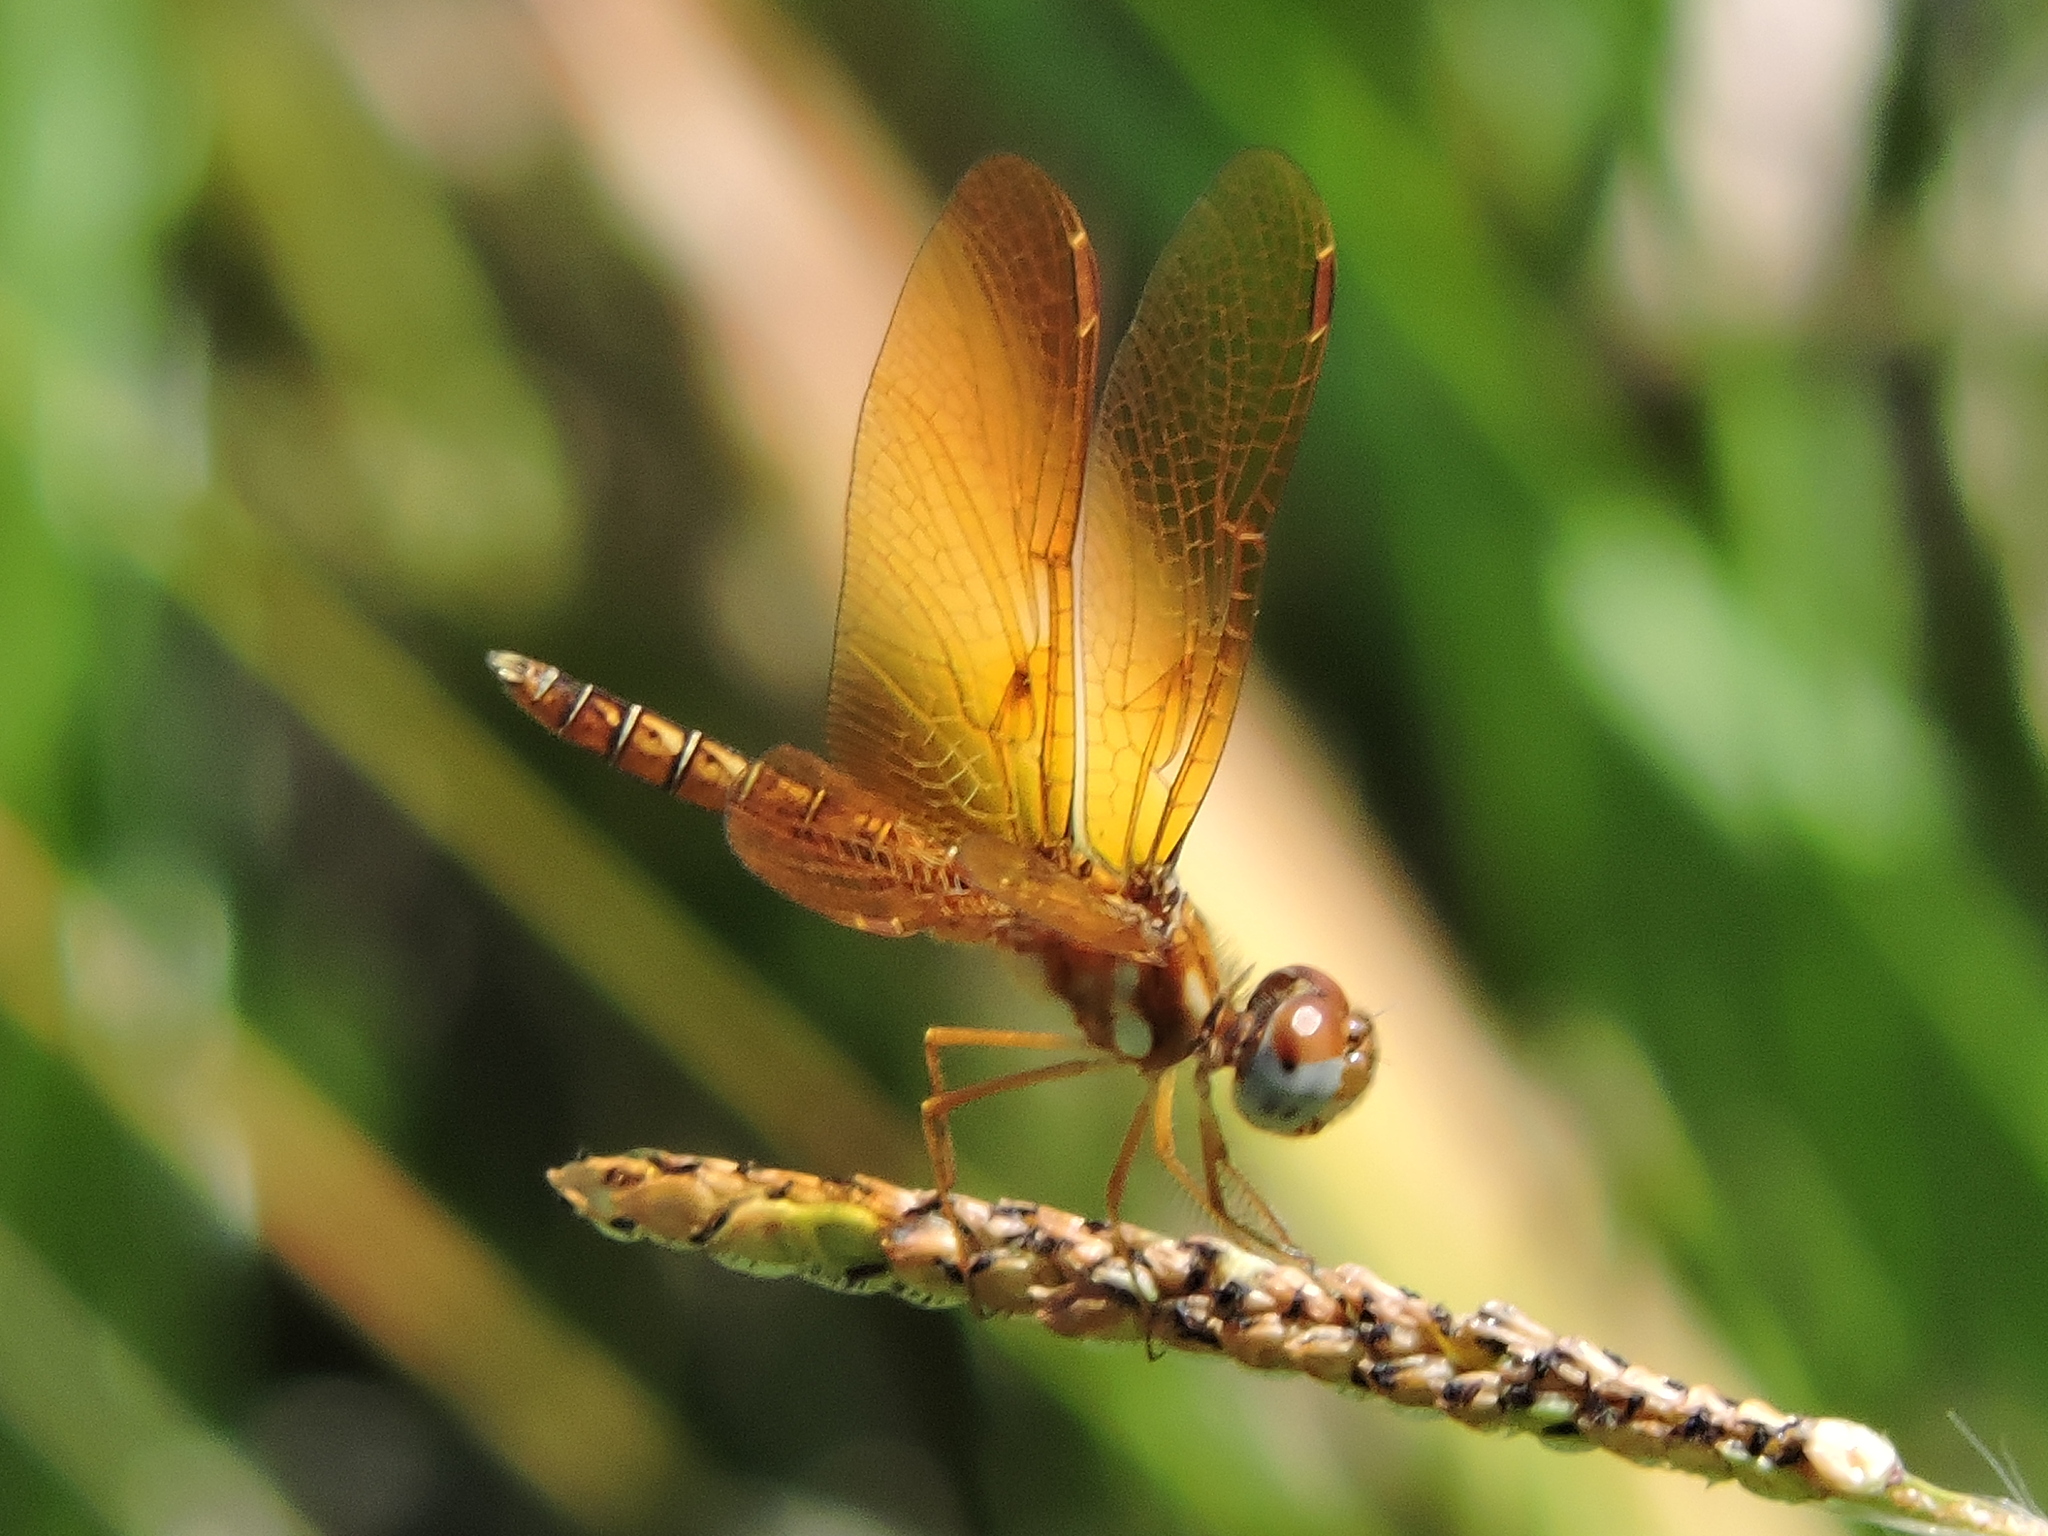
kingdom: Animalia
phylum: Arthropoda
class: Insecta
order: Odonata
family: Libellulidae
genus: Perithemis
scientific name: Perithemis tenera
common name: Eastern amberwing
